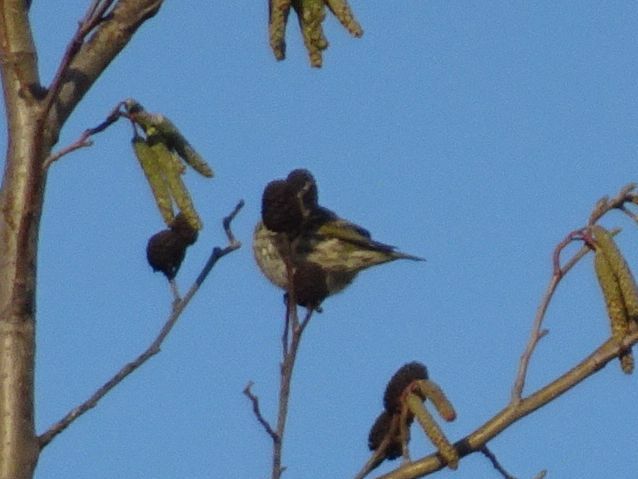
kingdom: Animalia
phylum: Chordata
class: Aves
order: Passeriformes
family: Fringillidae
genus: Spinus
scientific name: Spinus spinus
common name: Eurasian siskin
